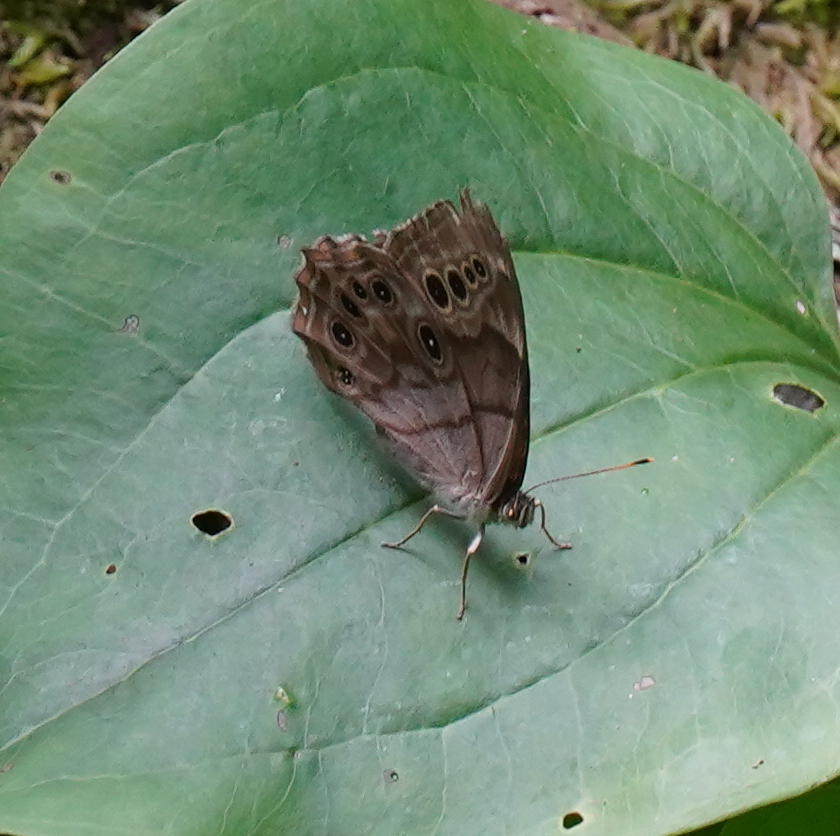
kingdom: Animalia
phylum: Arthropoda
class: Insecta
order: Lepidoptera
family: Nymphalidae
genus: Lethe
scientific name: Lethe anthedon
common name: Northern pearly-eye
